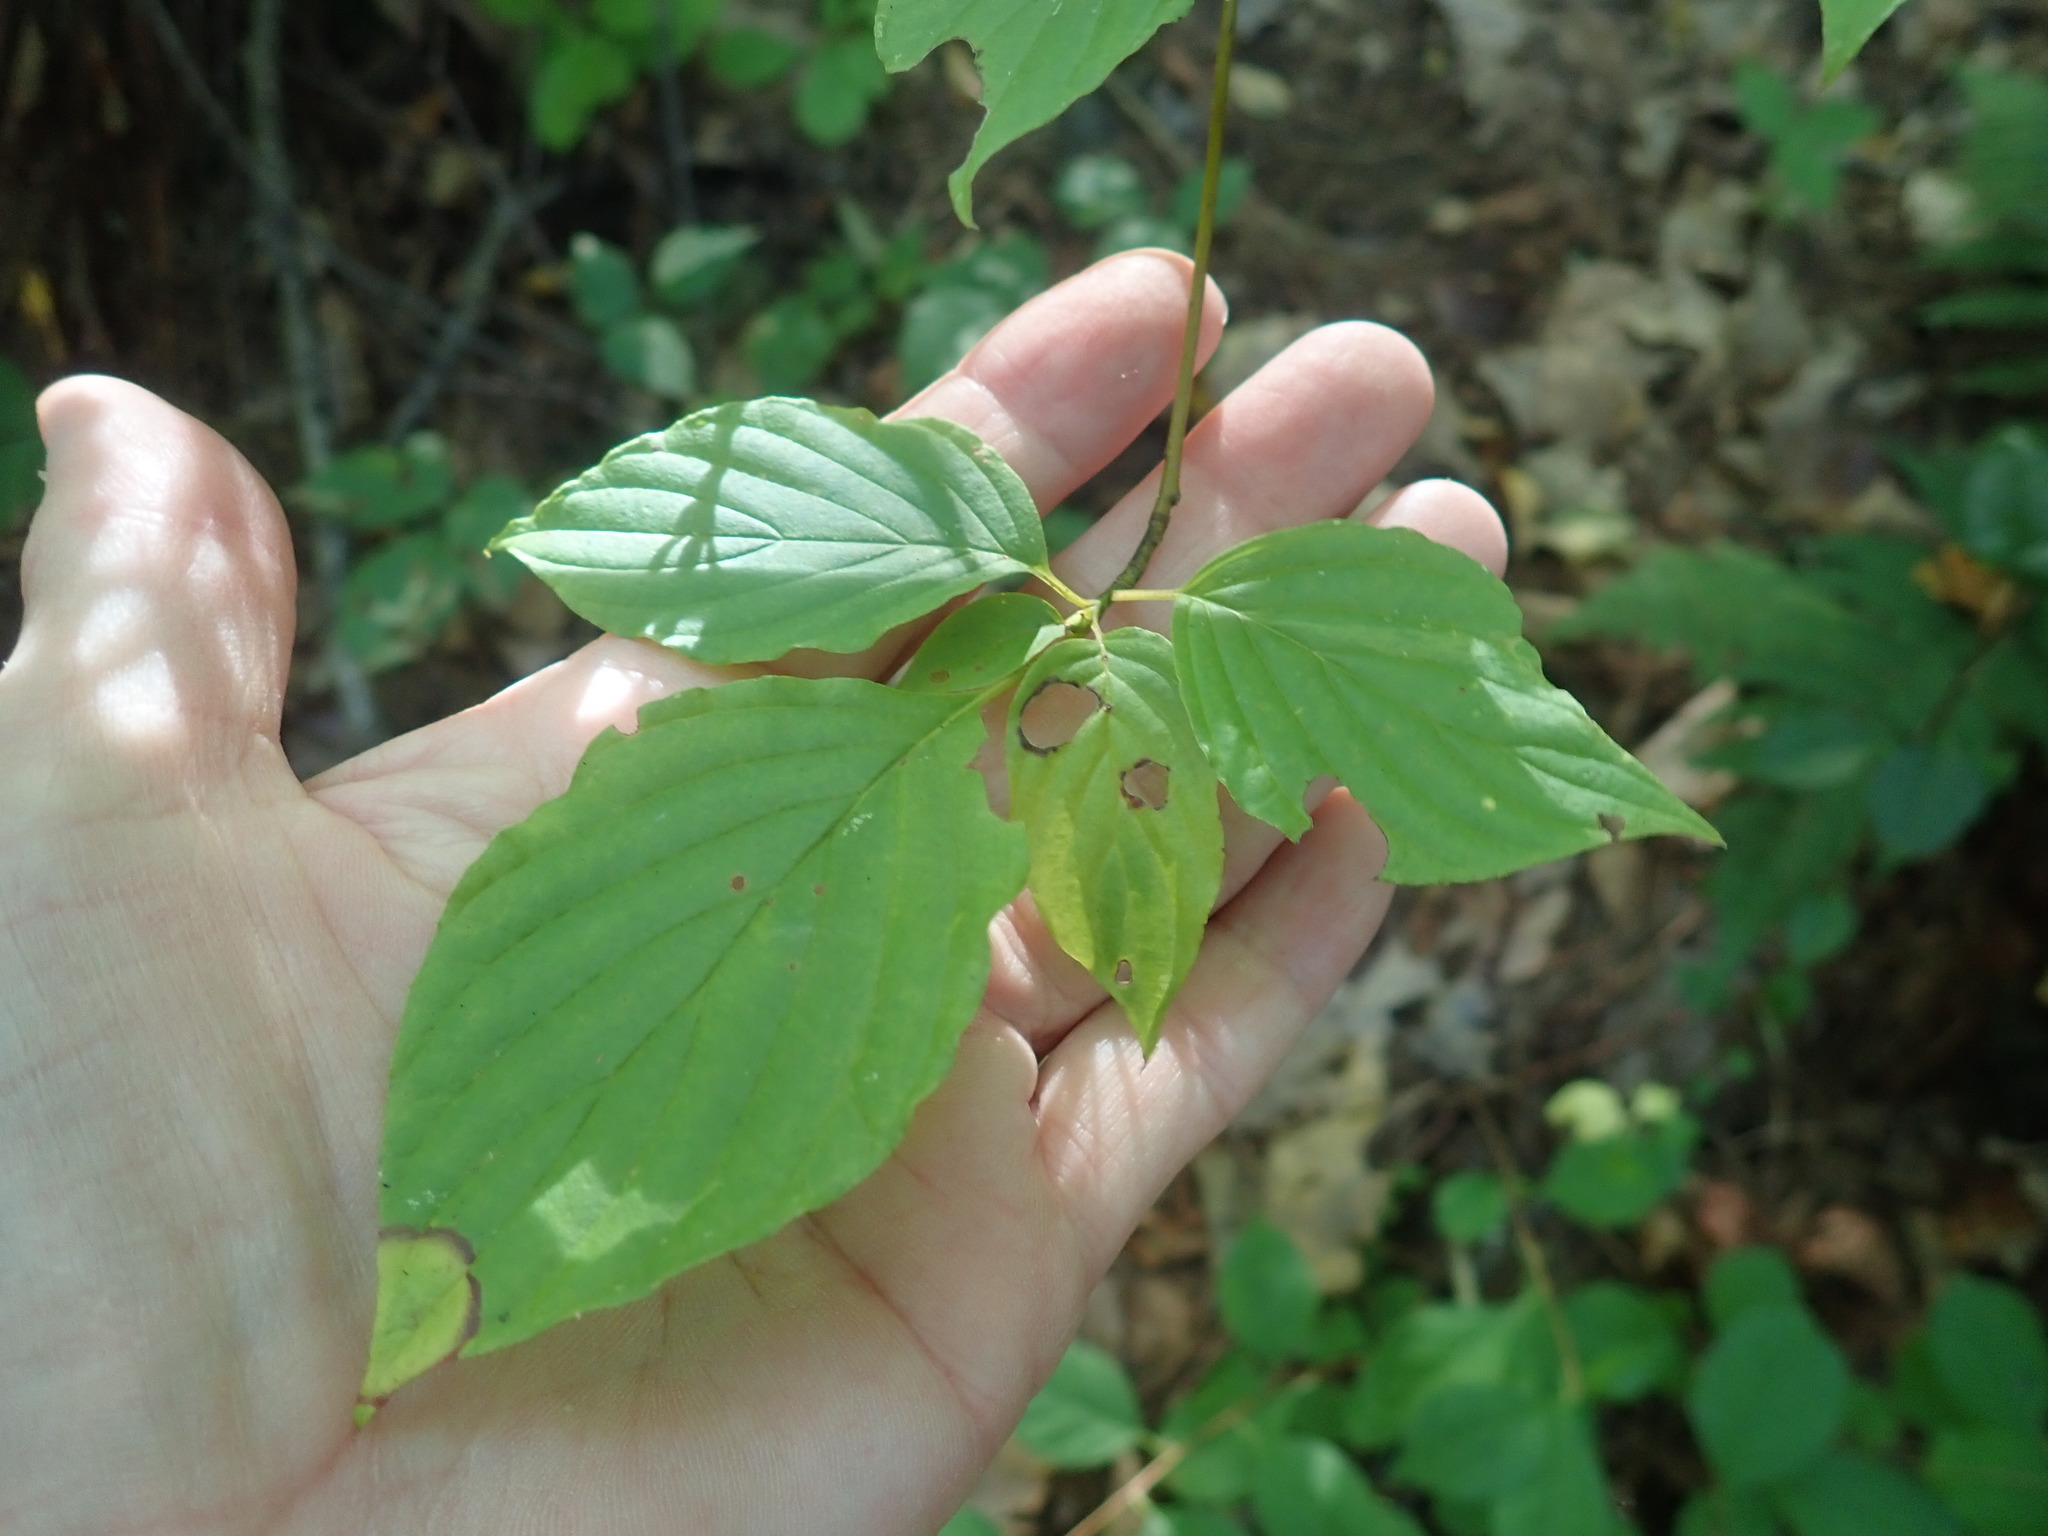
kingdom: Plantae
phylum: Tracheophyta
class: Magnoliopsida
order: Cornales
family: Cornaceae
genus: Cornus
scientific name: Cornus alternifolia
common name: Pagoda dogwood
